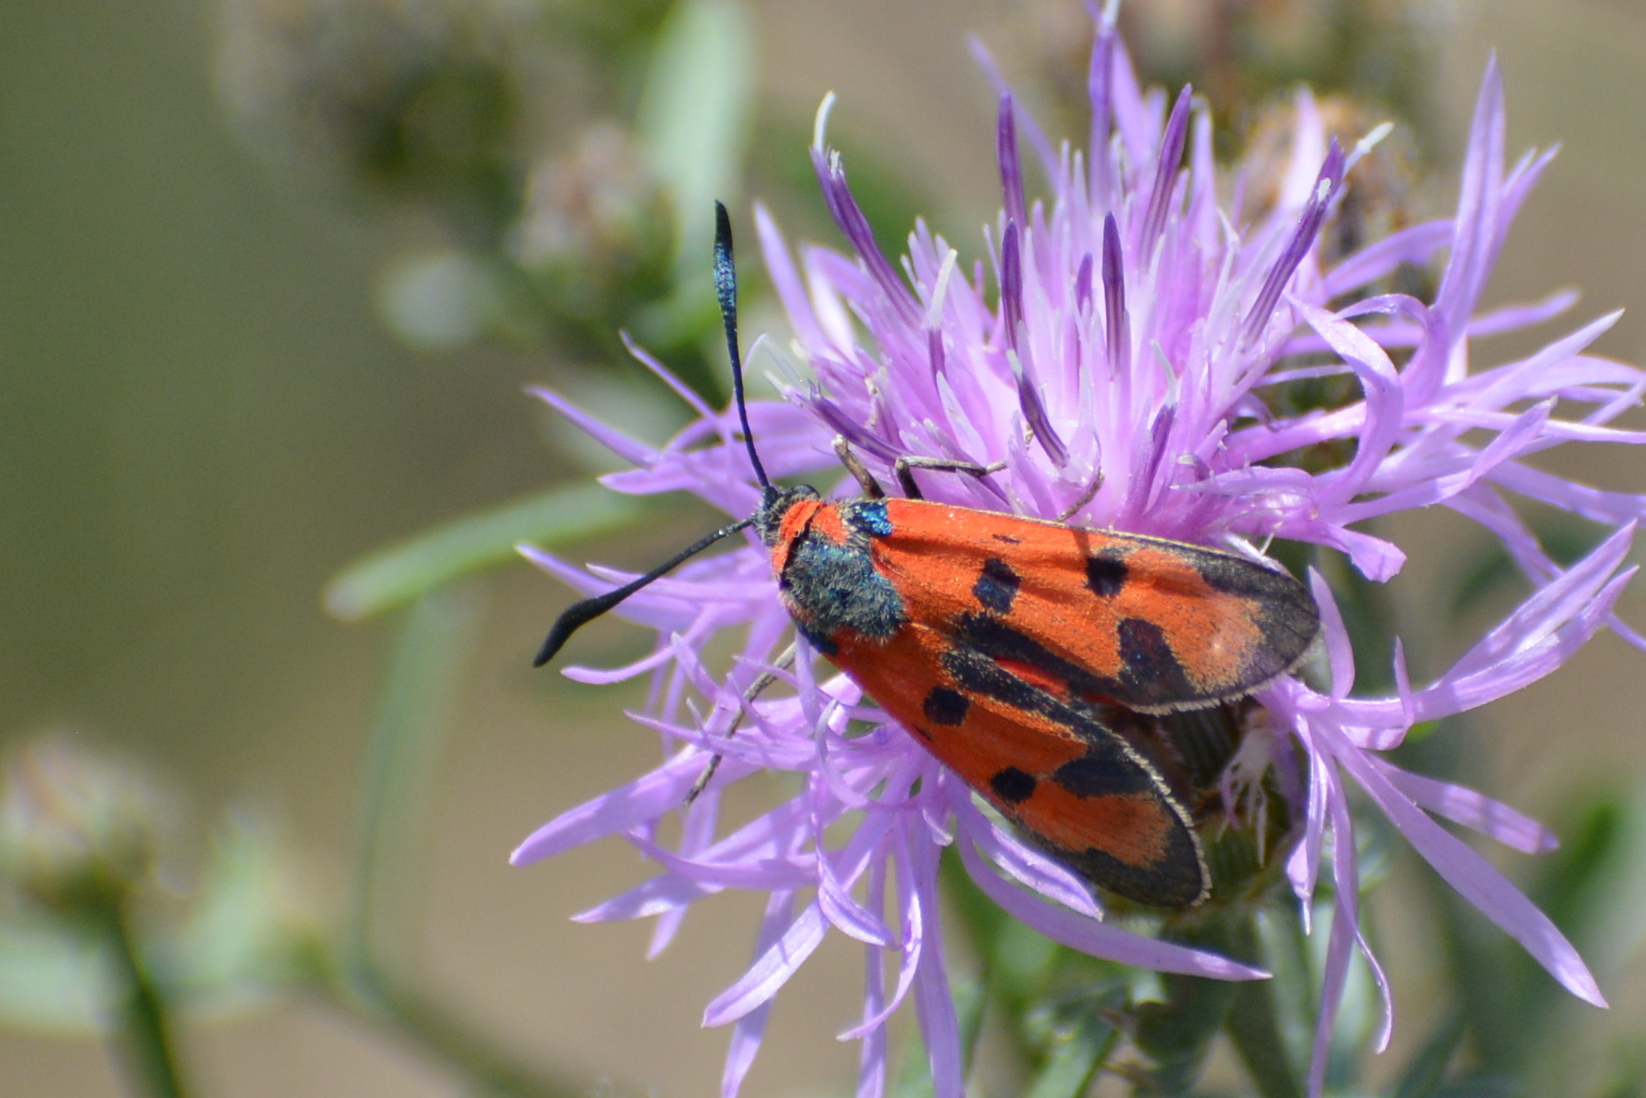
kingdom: Animalia
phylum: Arthropoda
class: Insecta
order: Lepidoptera
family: Zygaenidae
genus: Zygaena
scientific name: Zygaena laeta
